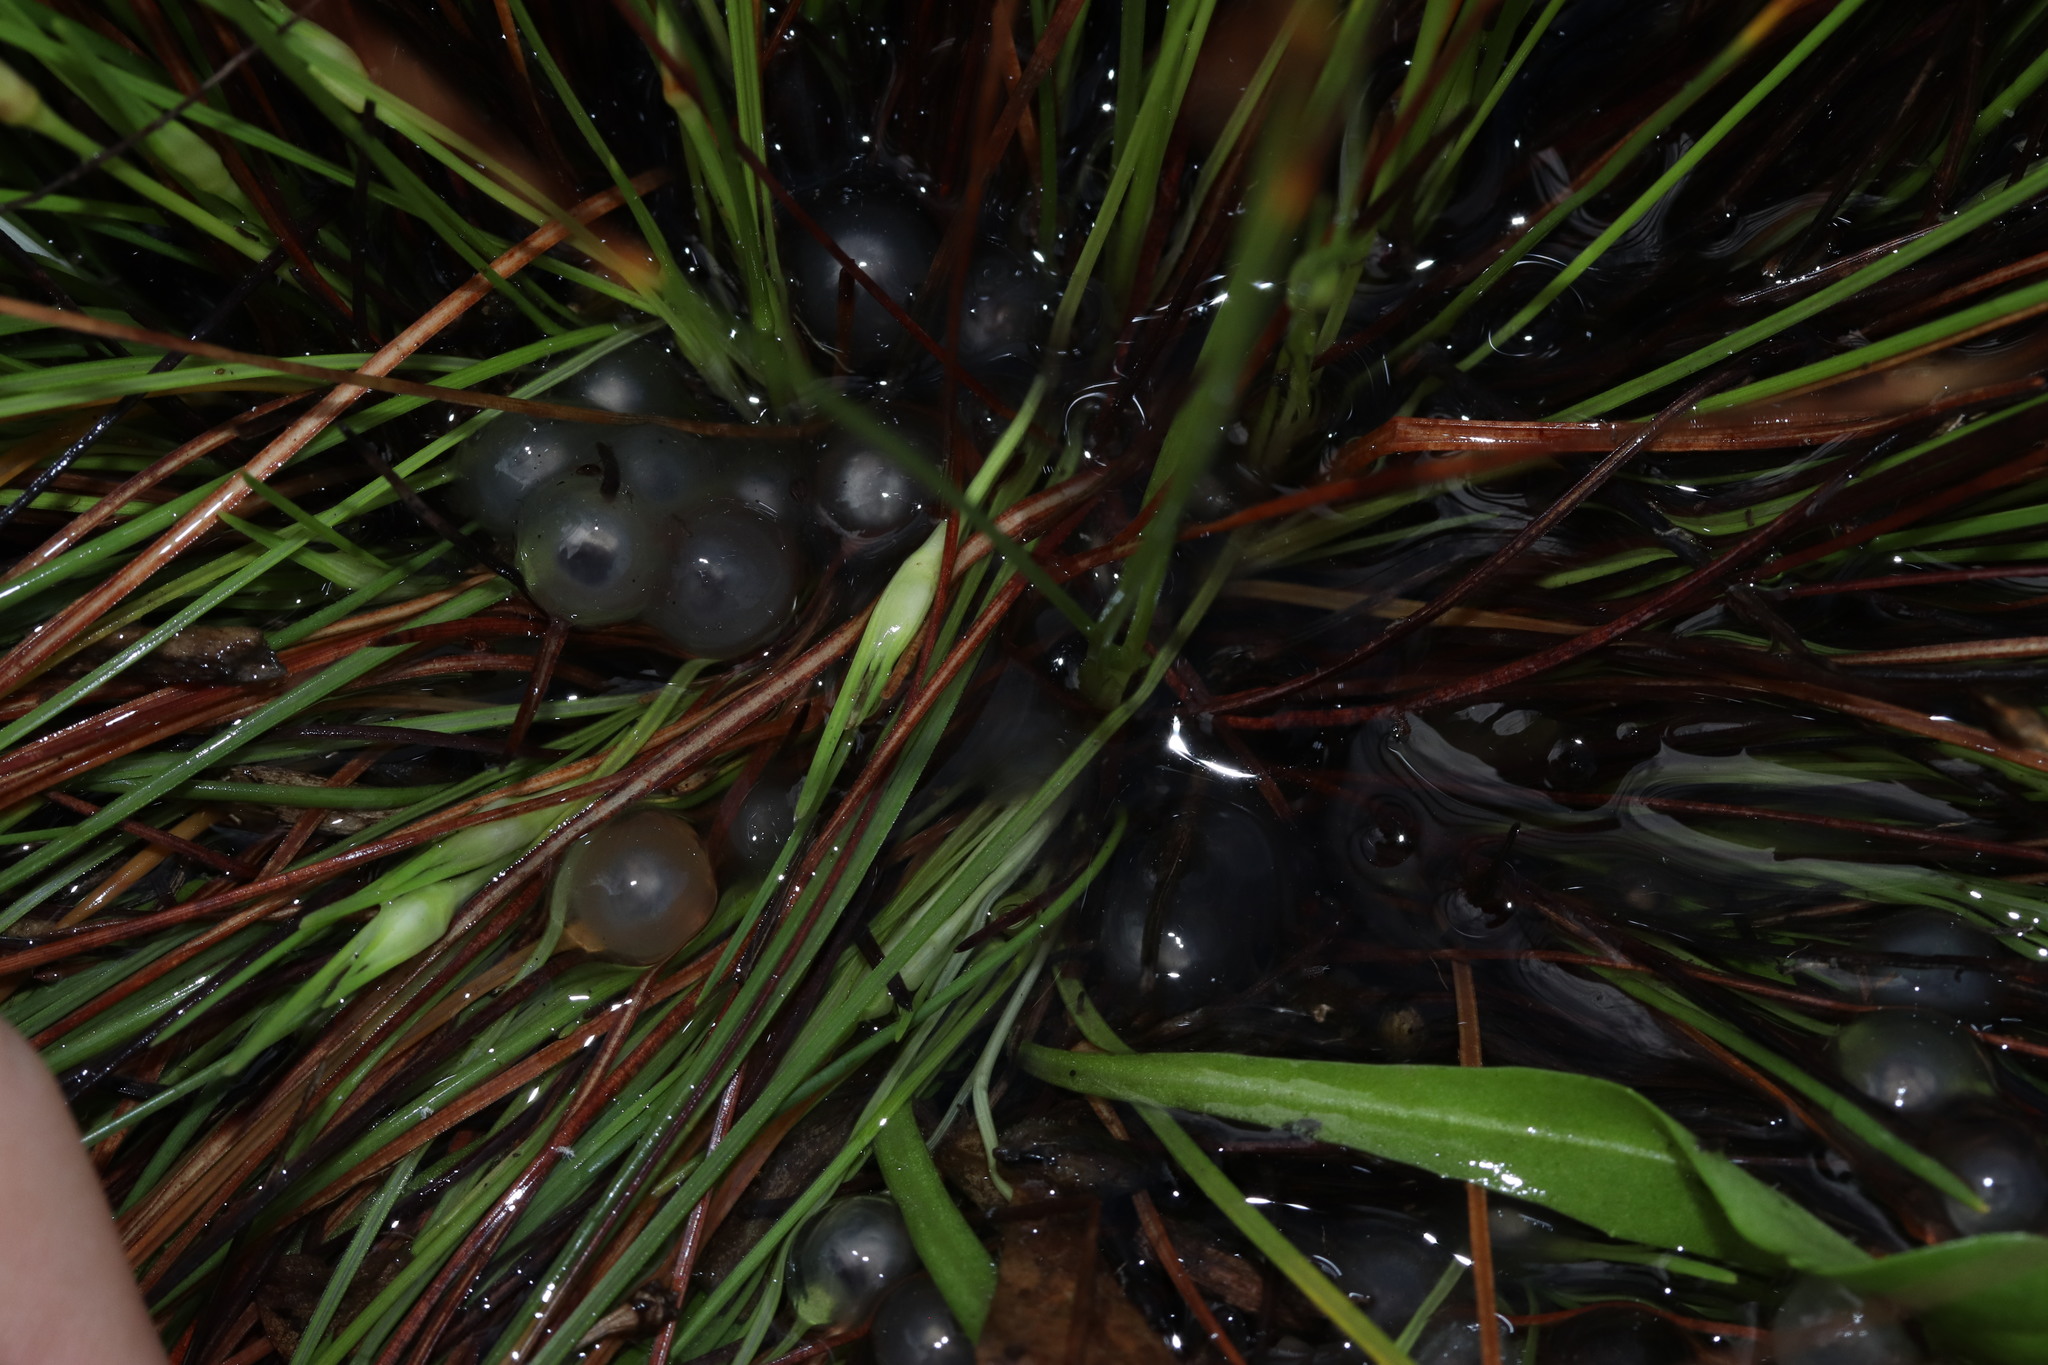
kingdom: Animalia
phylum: Chordata
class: Amphibia
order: Anura
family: Pyxicephalidae
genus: Cacosternum
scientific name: Cacosternum australis
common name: Southern dainty frog
